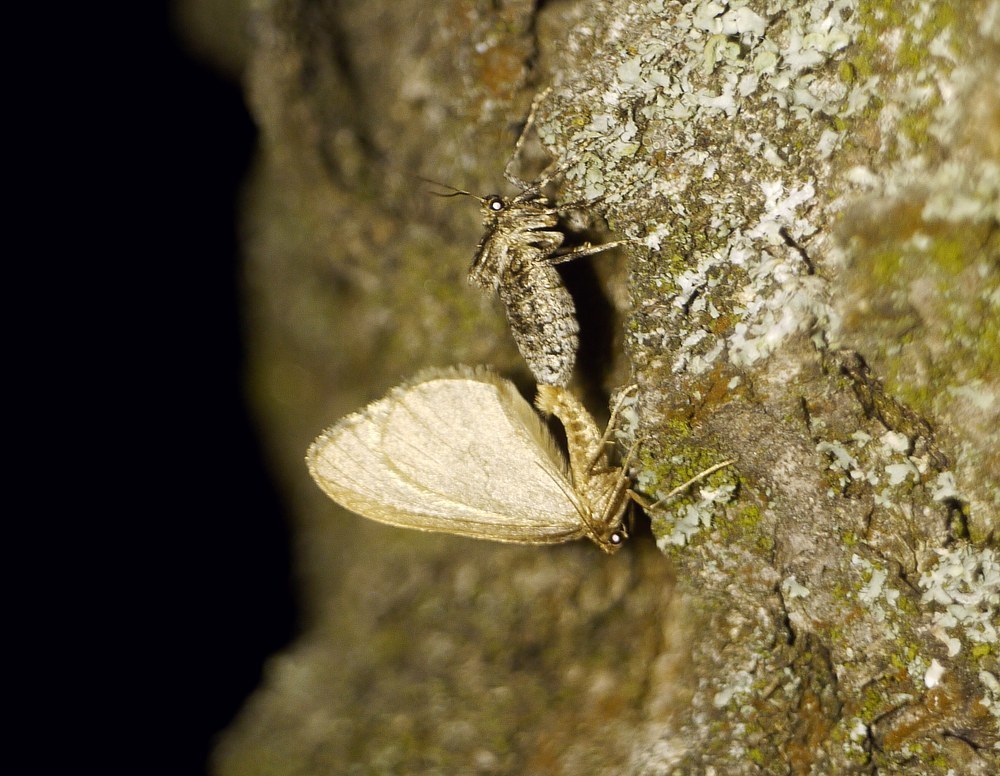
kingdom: Animalia
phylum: Arthropoda
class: Insecta
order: Lepidoptera
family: Geometridae
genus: Operophtera
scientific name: Operophtera brumata
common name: Winter moth
